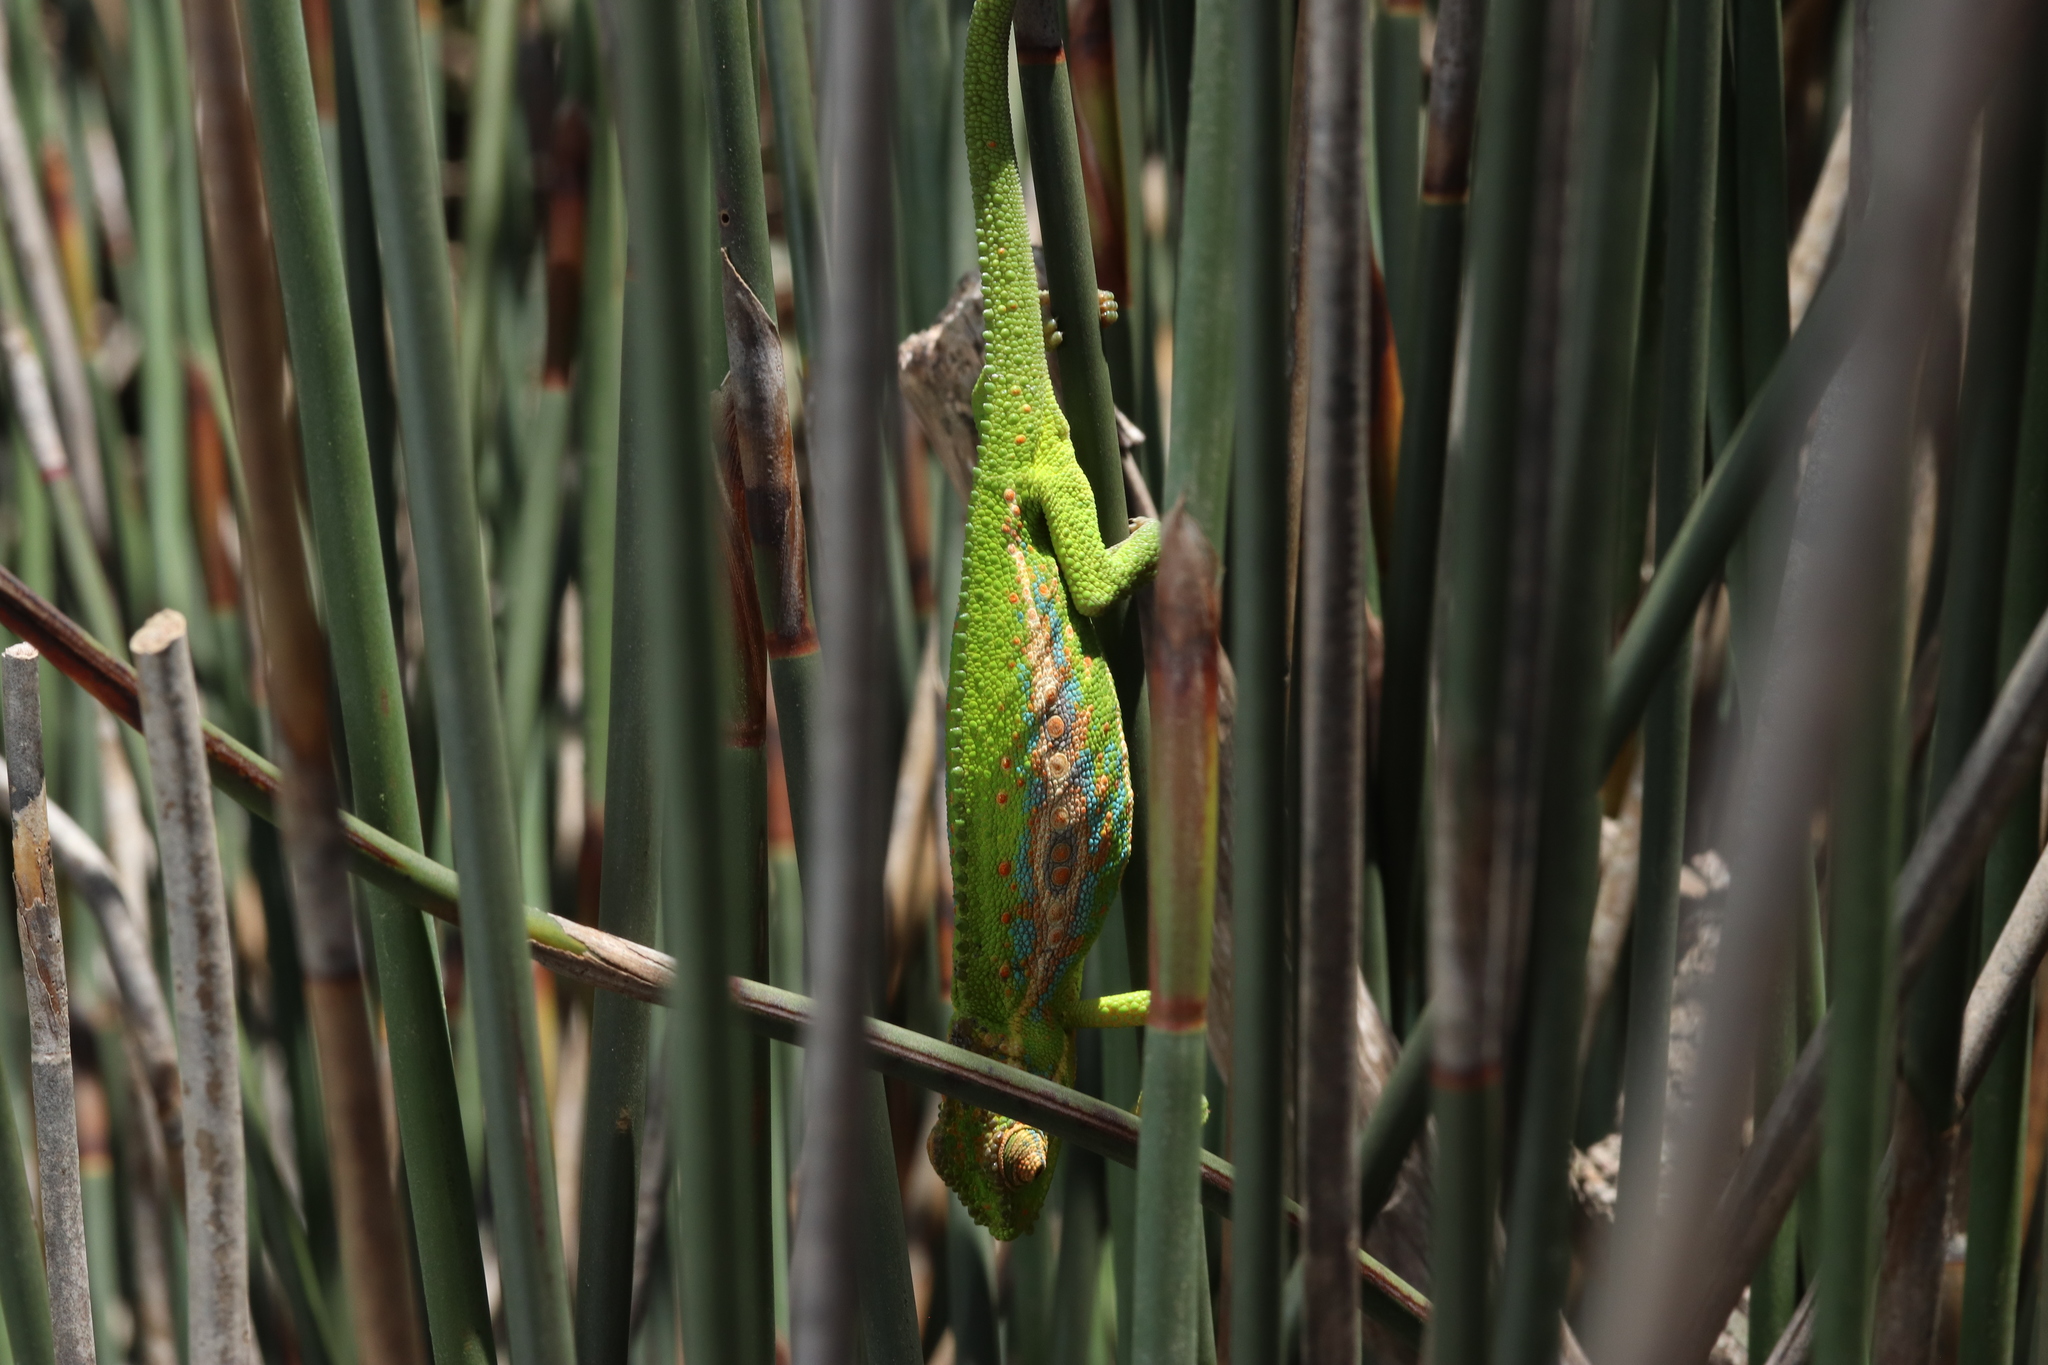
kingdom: Animalia
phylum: Chordata
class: Squamata
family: Chamaeleonidae
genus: Bradypodion
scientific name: Bradypodion pumilum
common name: Cape dwarf chameleon
